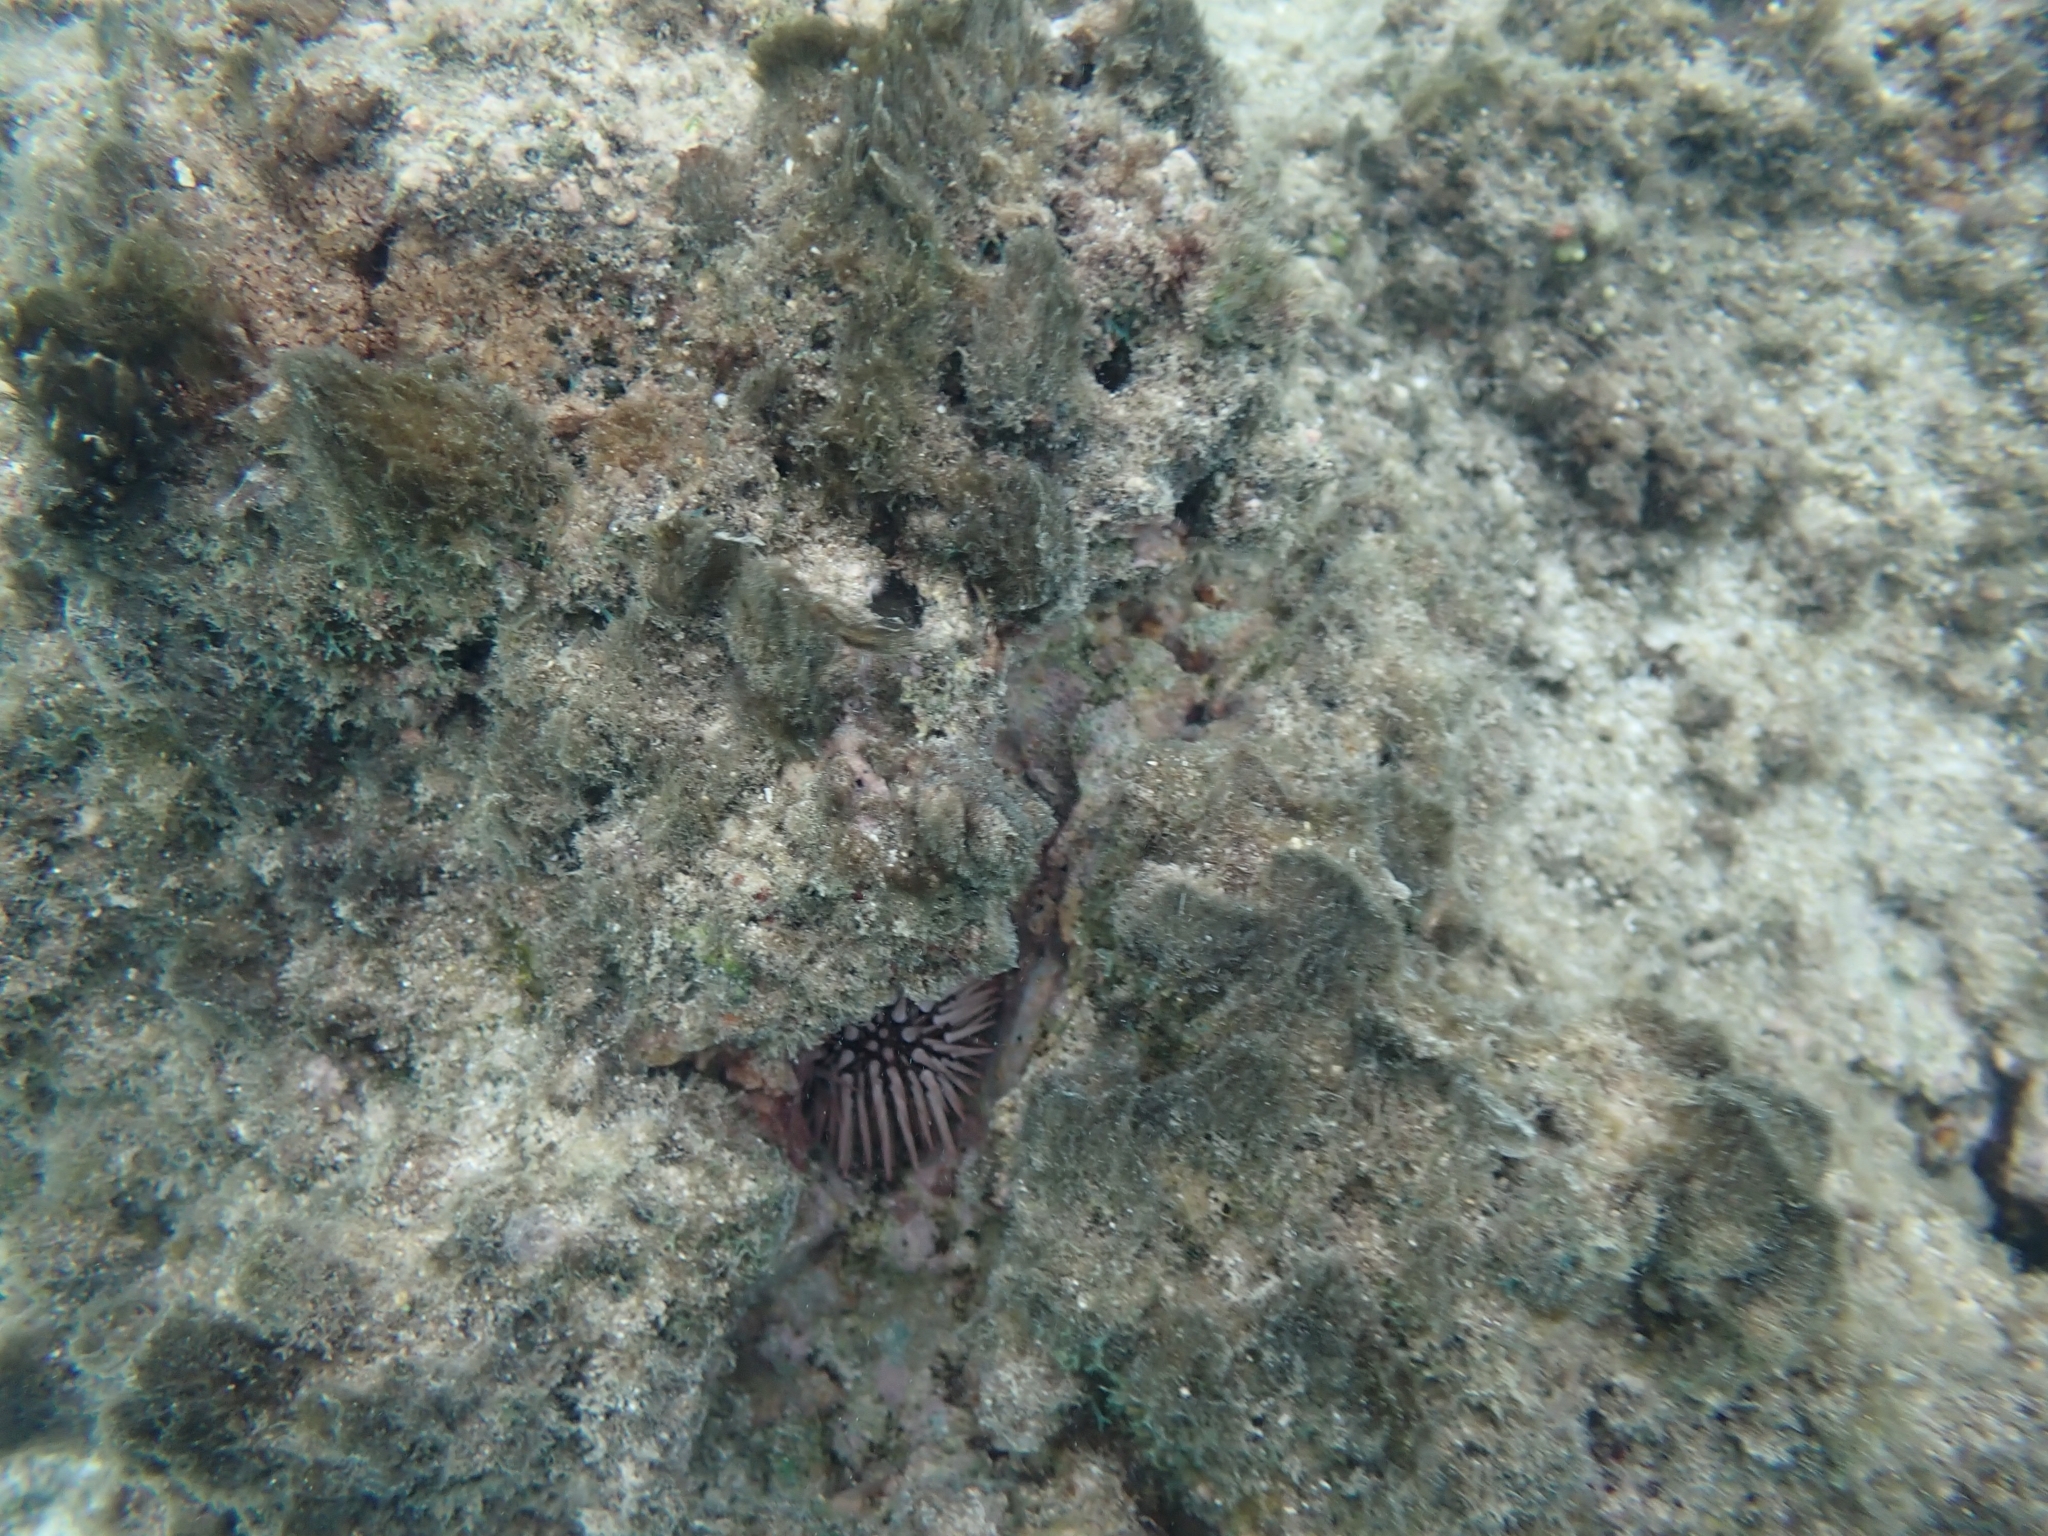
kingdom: Animalia
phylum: Echinodermata
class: Echinoidea
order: Camarodonta
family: Echinometridae
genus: Echinometra
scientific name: Echinometra mathaei
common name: Rock-boring urchin
